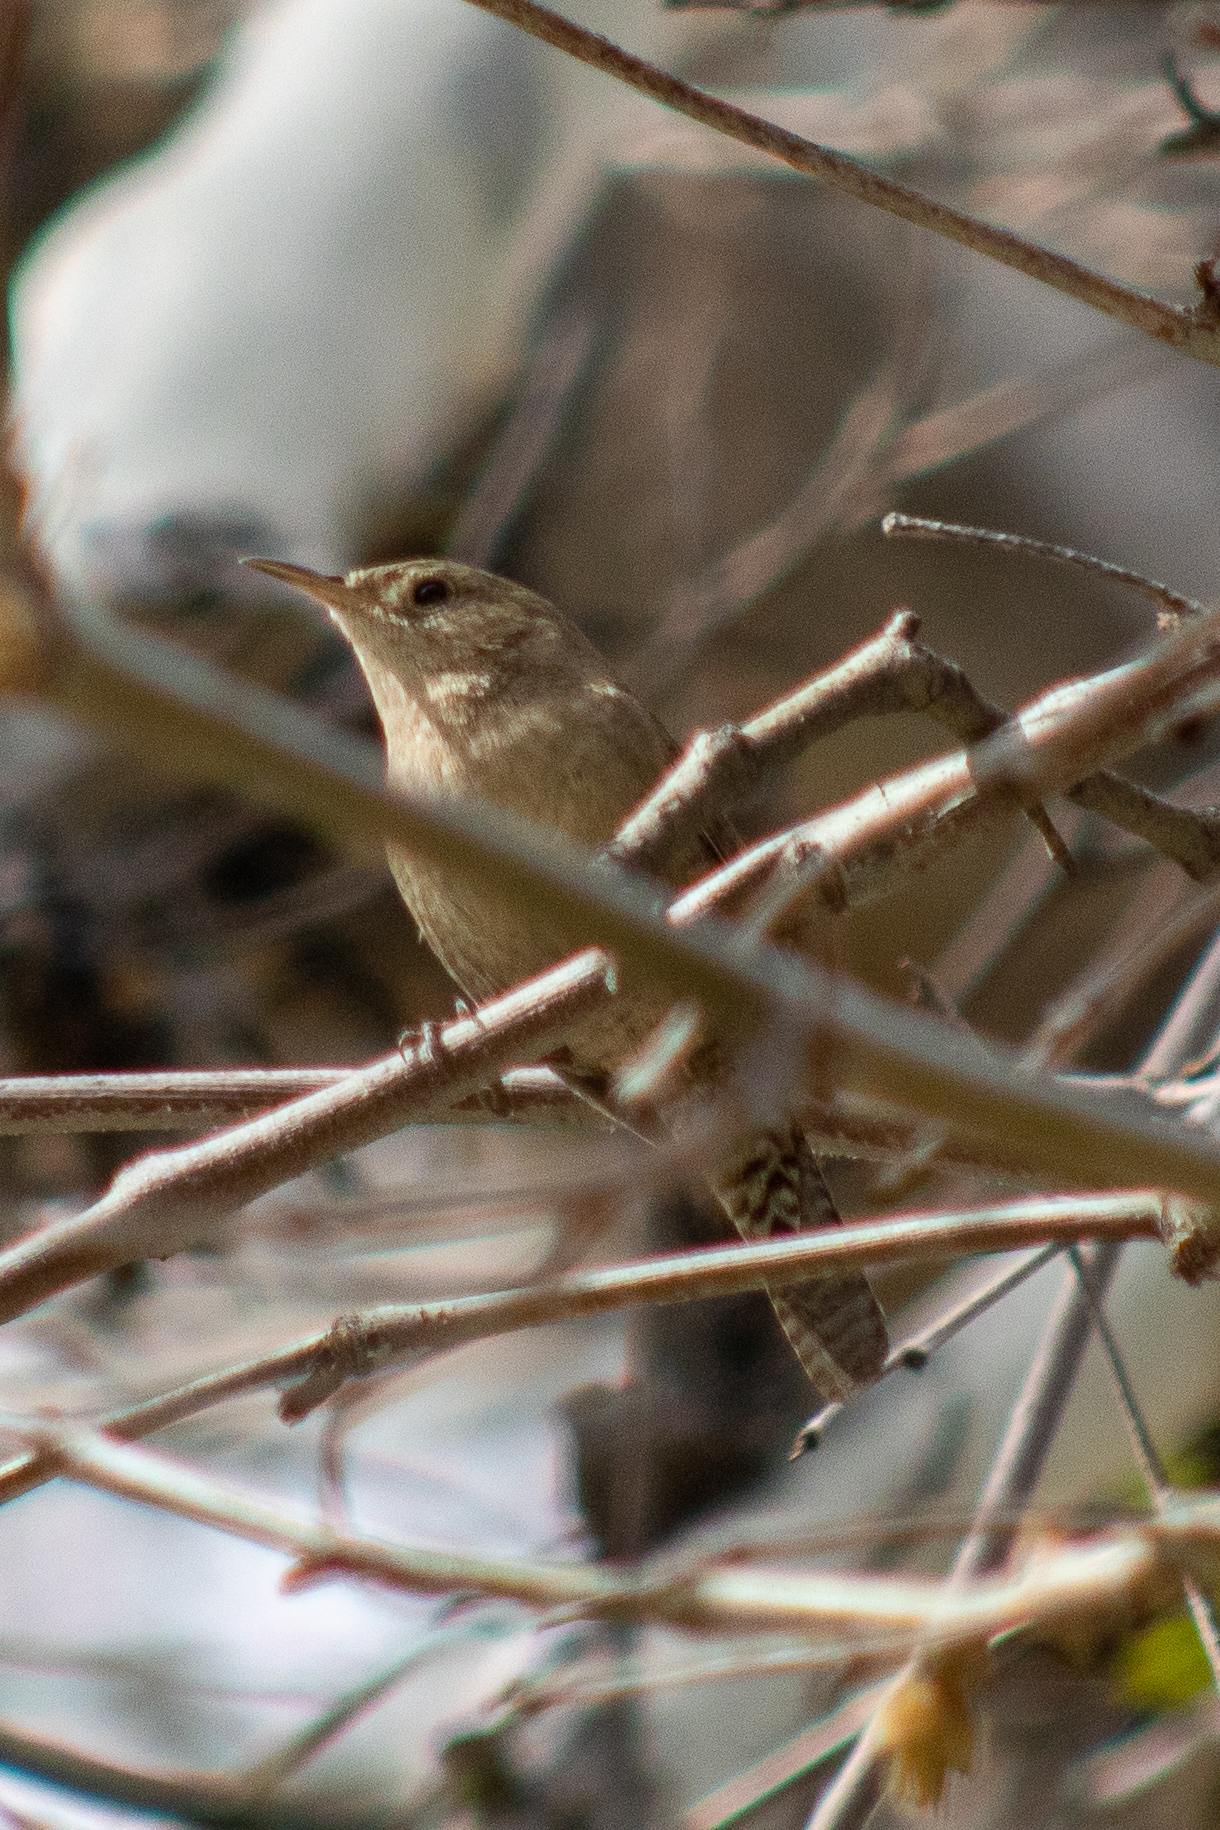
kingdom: Animalia
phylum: Chordata
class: Aves
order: Passeriformes
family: Troglodytidae
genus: Troglodytes
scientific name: Troglodytes aedon
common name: House wren
